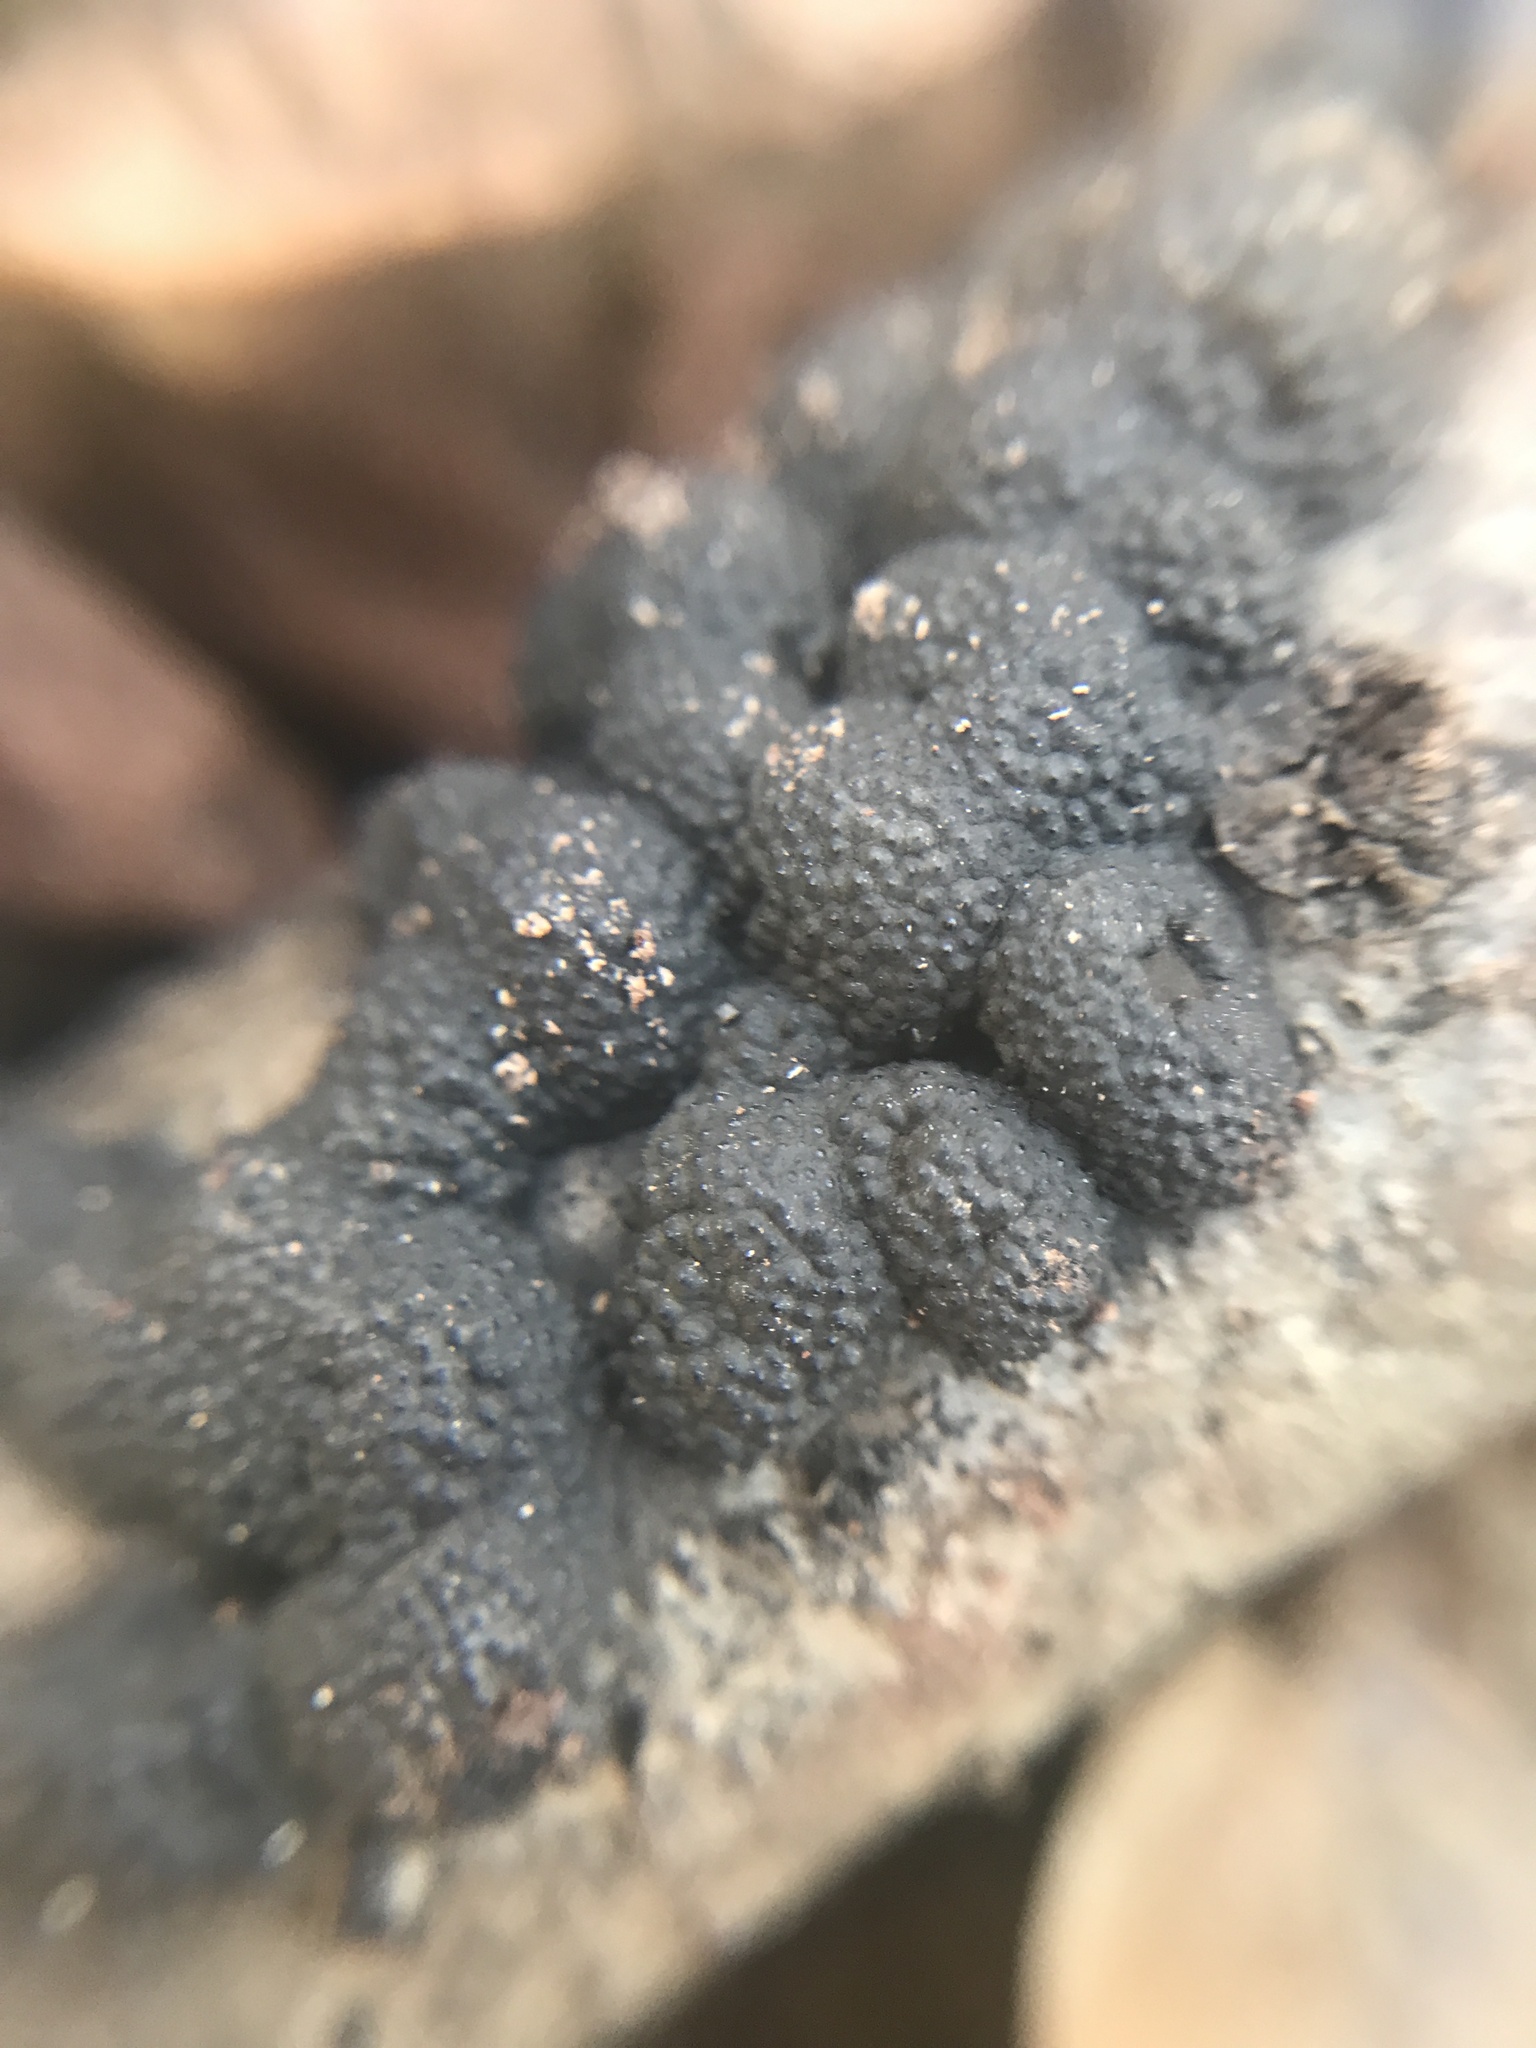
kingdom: Fungi
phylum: Ascomycota
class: Sordariomycetes
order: Xylariales
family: Hypoxylaceae
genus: Annulohypoxylon
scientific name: Annulohypoxylon annulatum
